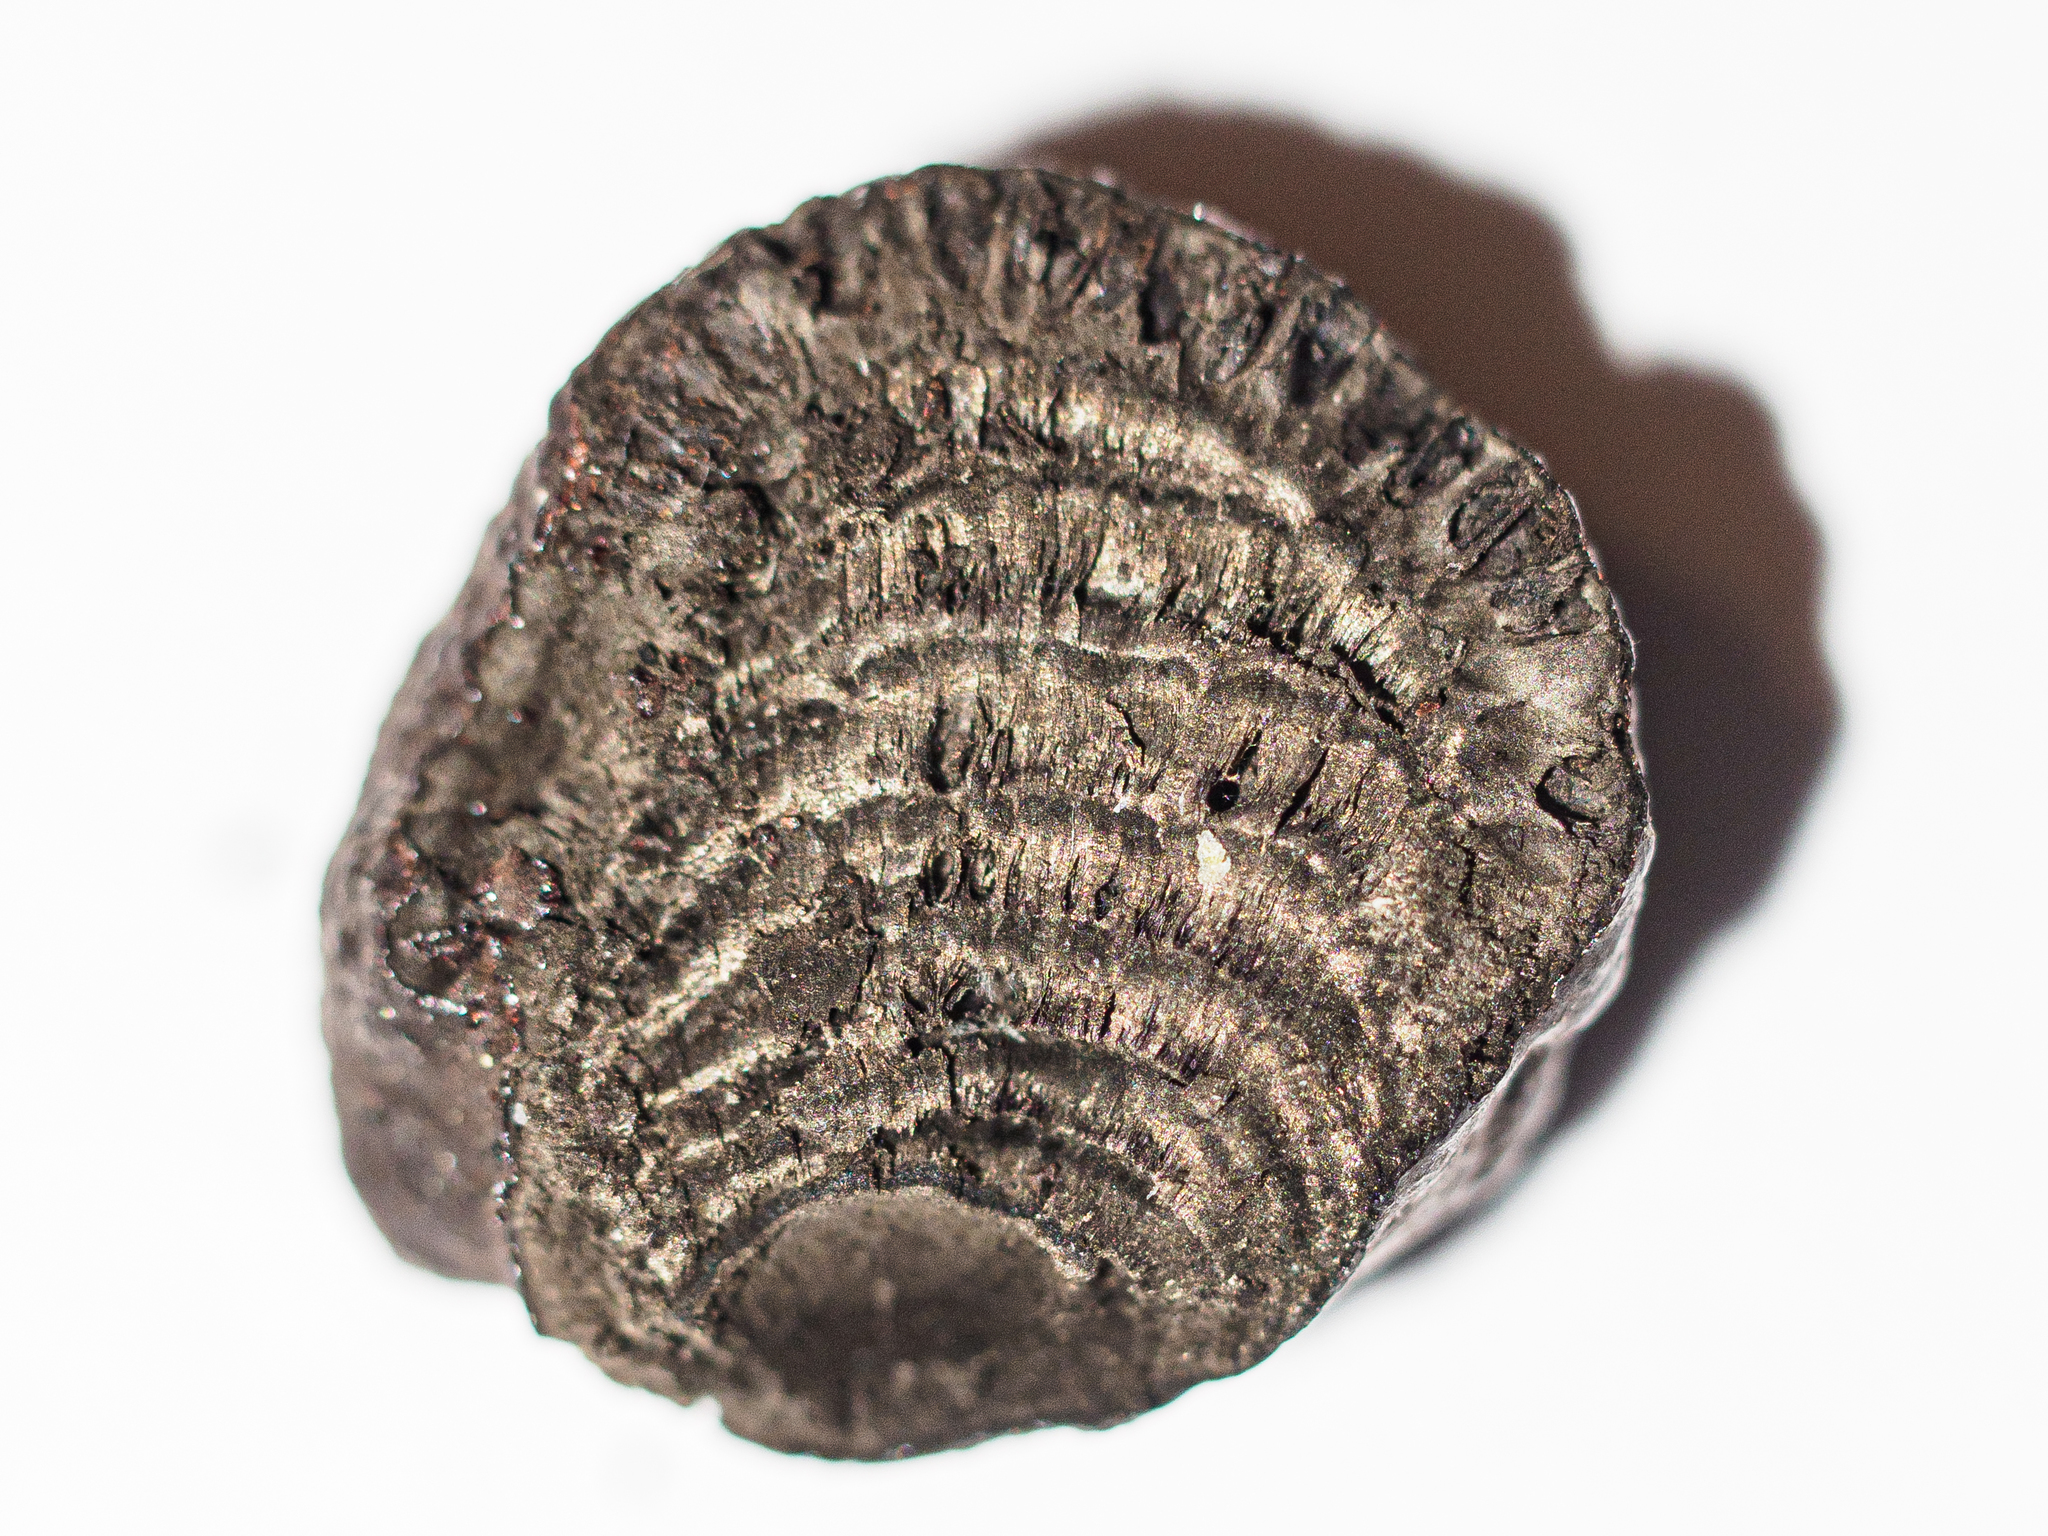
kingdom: Fungi
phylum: Ascomycota
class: Sordariomycetes
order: Xylariales
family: Hypoxylaceae
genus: Daldinia
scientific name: Daldinia petriniae
